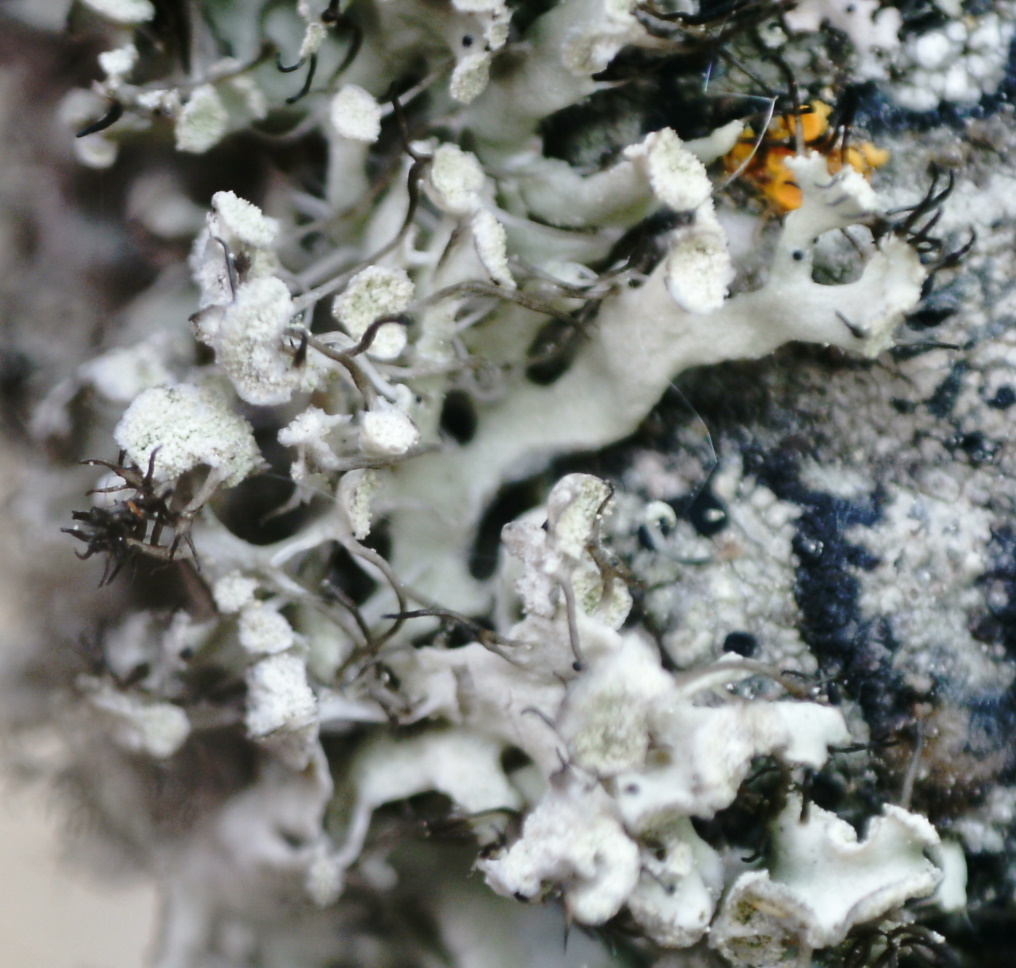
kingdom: Fungi
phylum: Ascomycota
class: Lecanoromycetes
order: Caliciales
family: Physciaceae
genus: Physcia
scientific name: Physcia tenella
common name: Fringed rosette lichen
